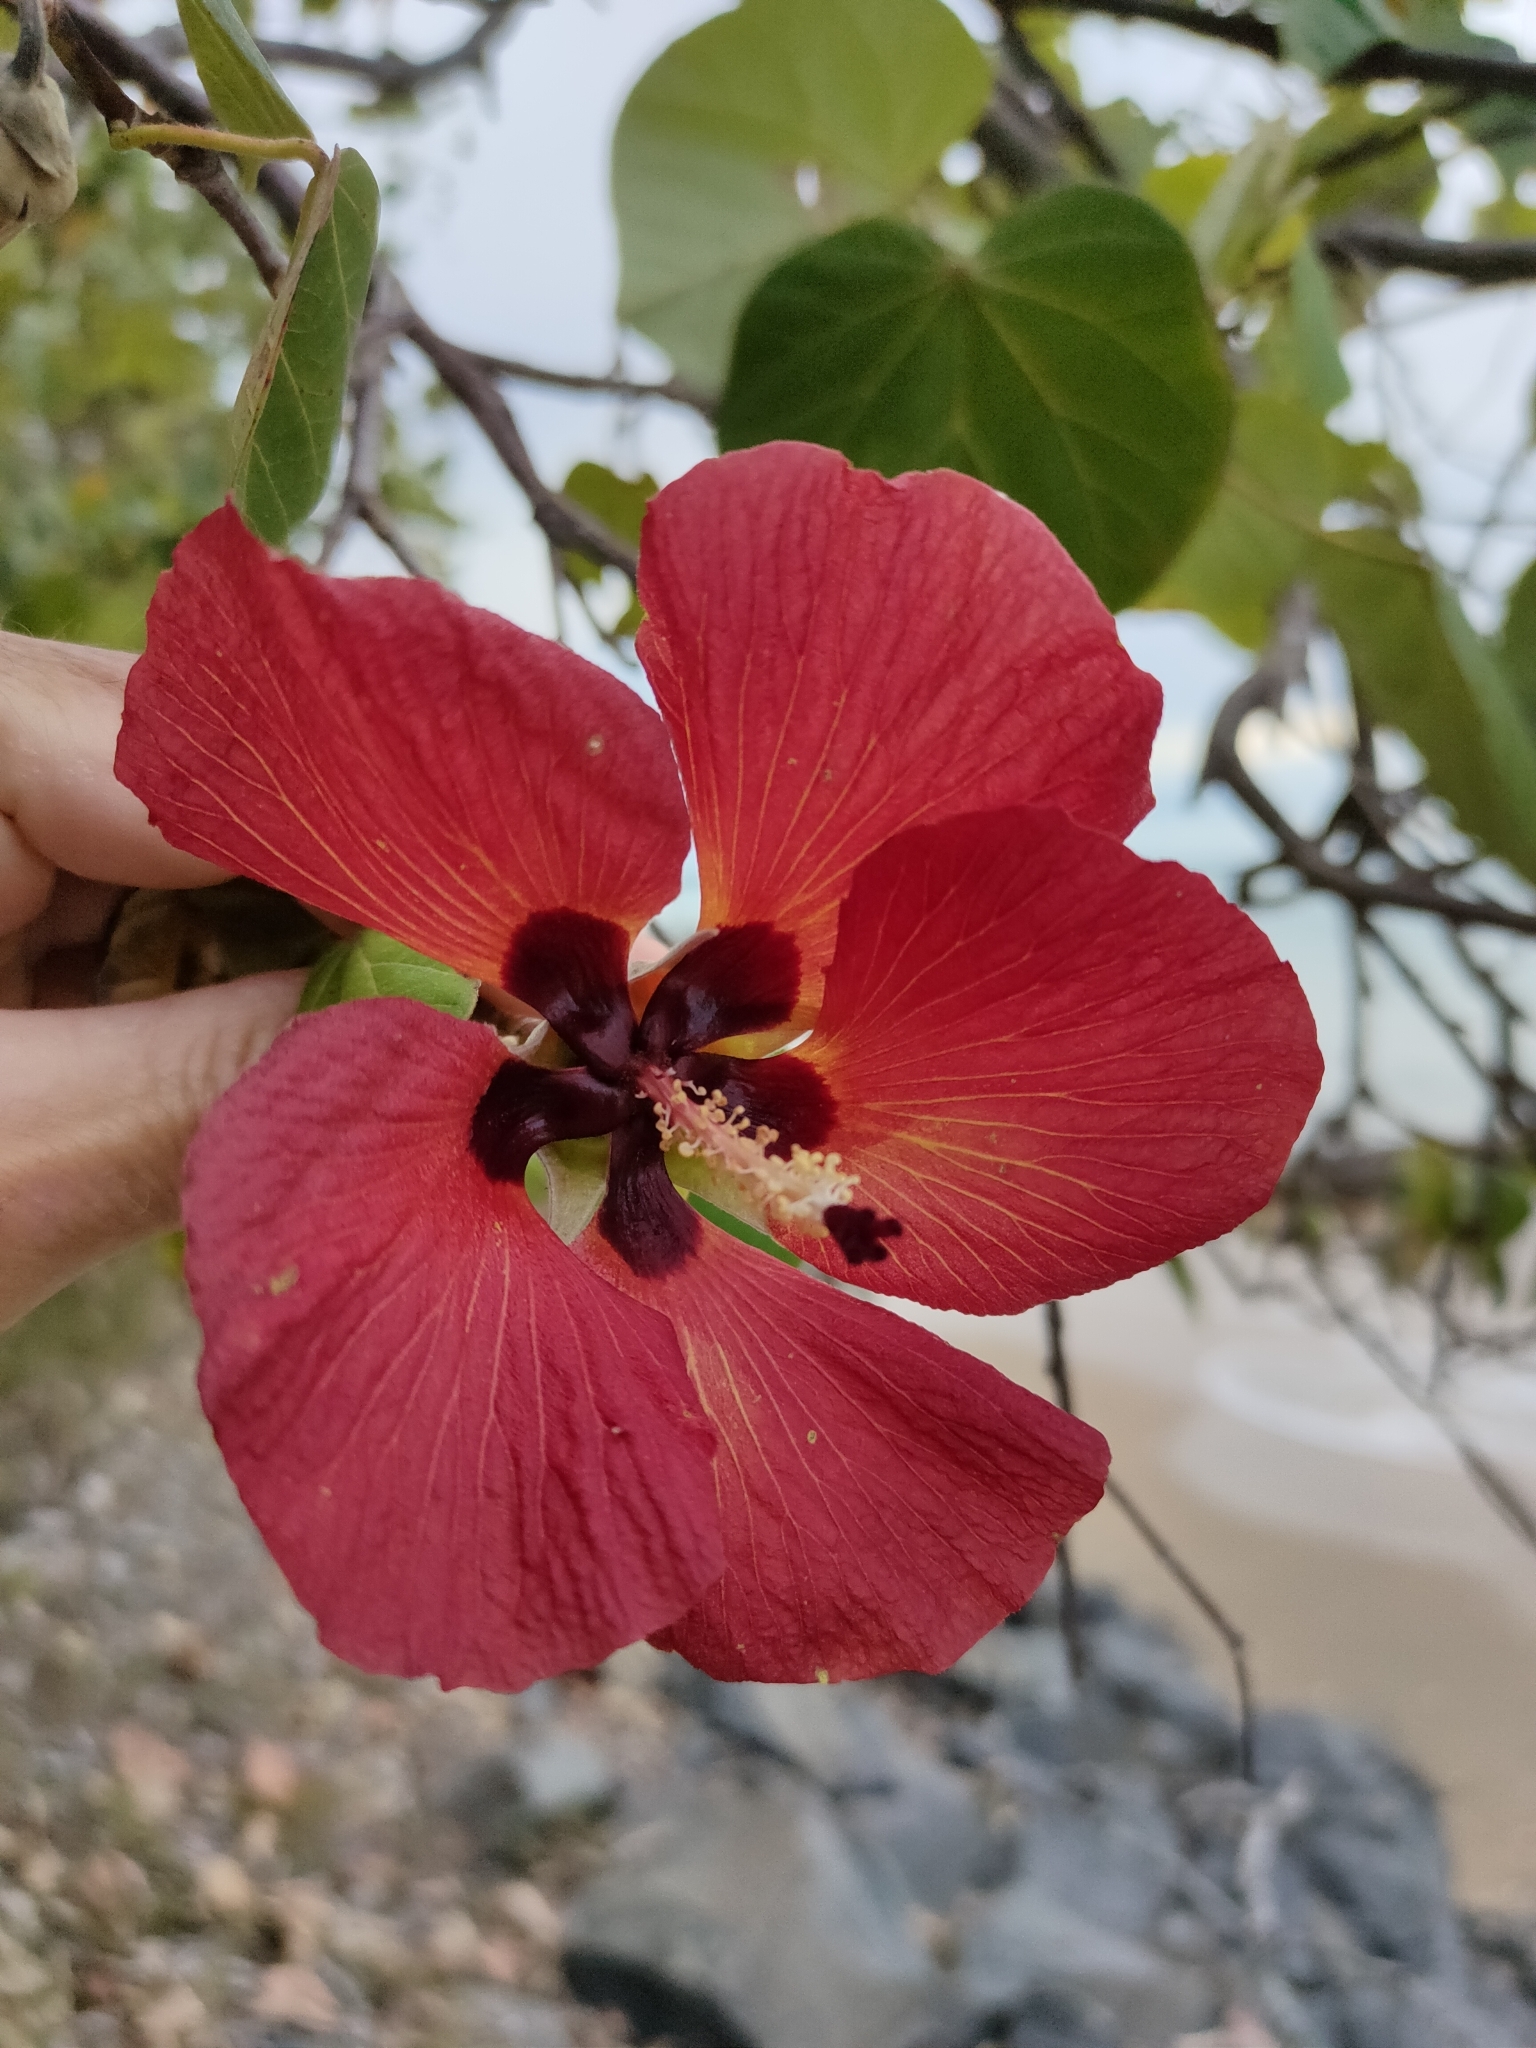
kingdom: Plantae
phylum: Tracheophyta
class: Magnoliopsida
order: Malvales
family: Malvaceae
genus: Talipariti
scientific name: Talipariti tiliaceum
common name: Sea hibiscus
